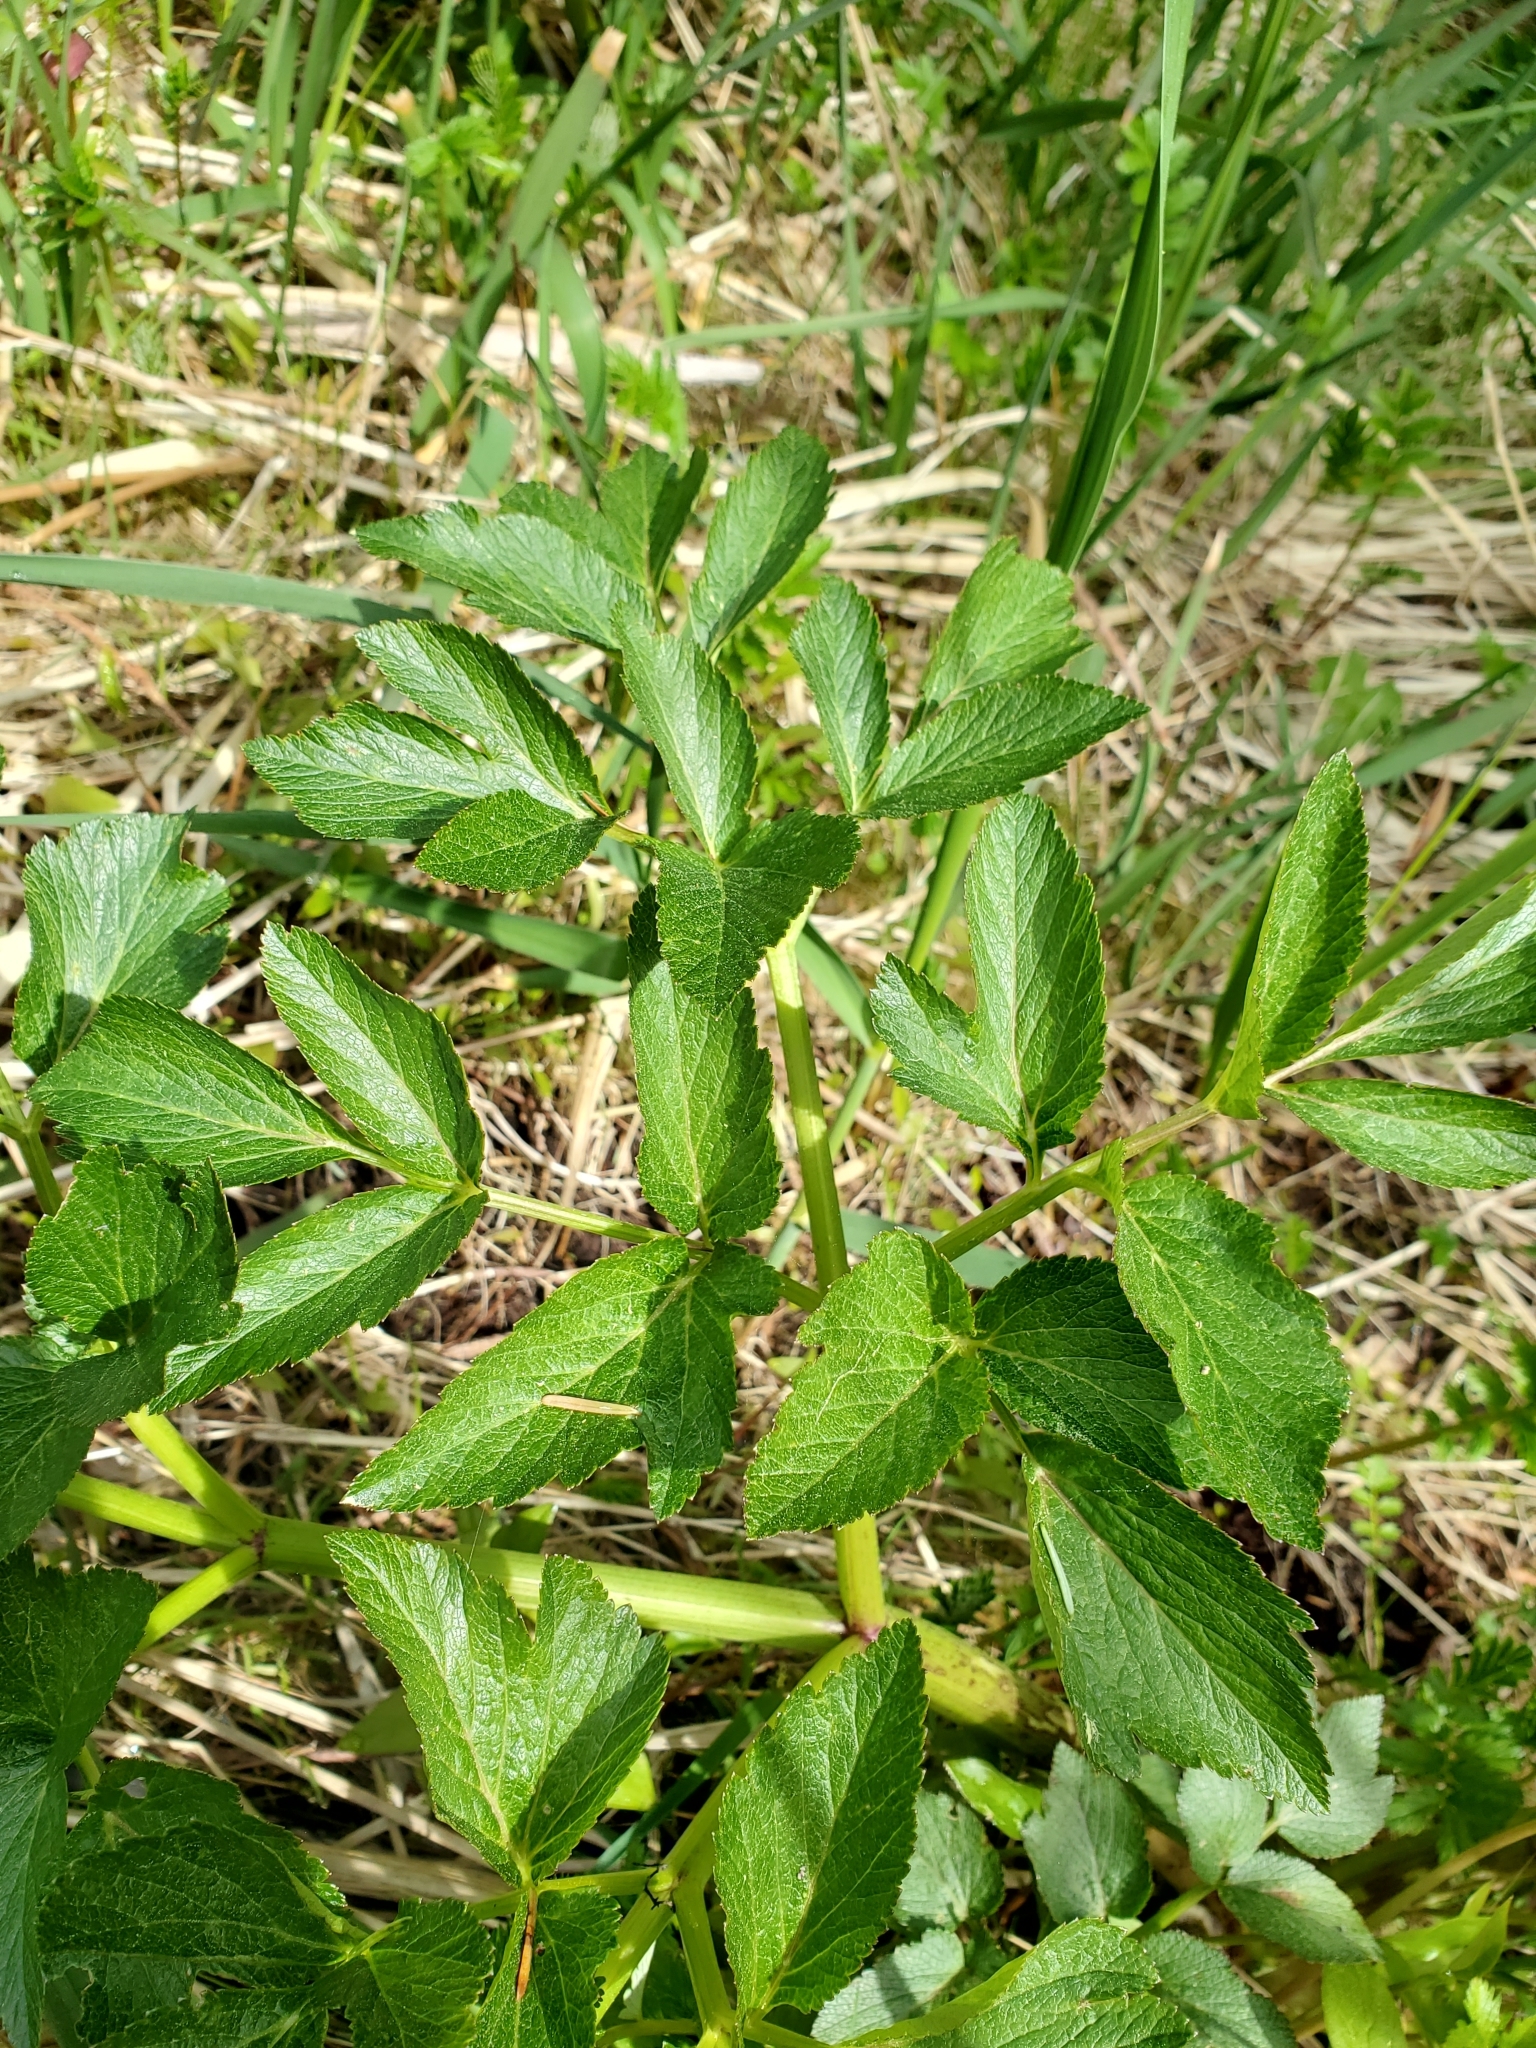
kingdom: Plantae
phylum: Tracheophyta
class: Magnoliopsida
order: Apiales
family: Apiaceae
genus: Angelica
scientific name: Angelica lucida
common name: Seabeach angelica
